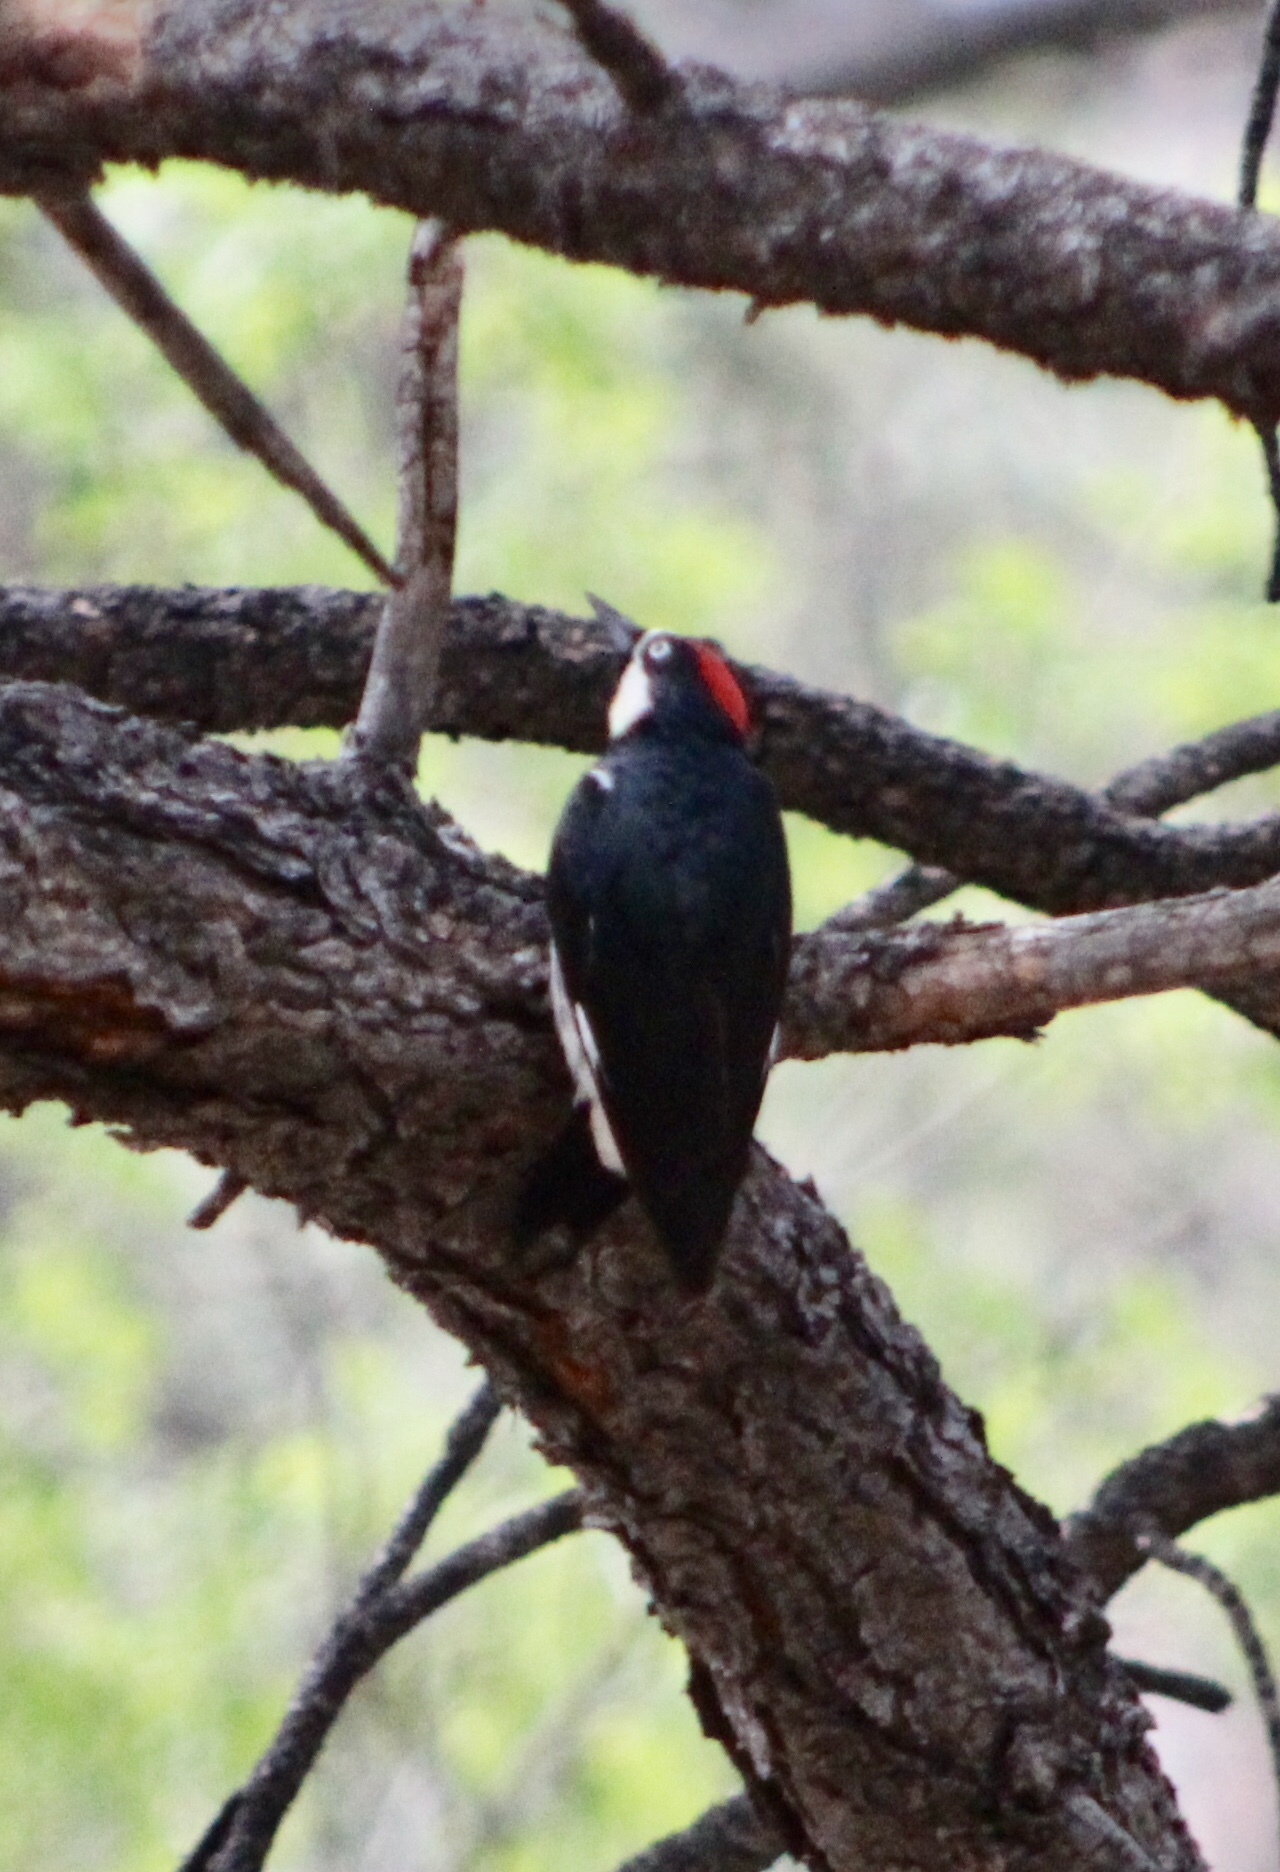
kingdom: Animalia
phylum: Chordata
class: Aves
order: Piciformes
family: Picidae
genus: Melanerpes
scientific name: Melanerpes formicivorus
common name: Acorn woodpecker
